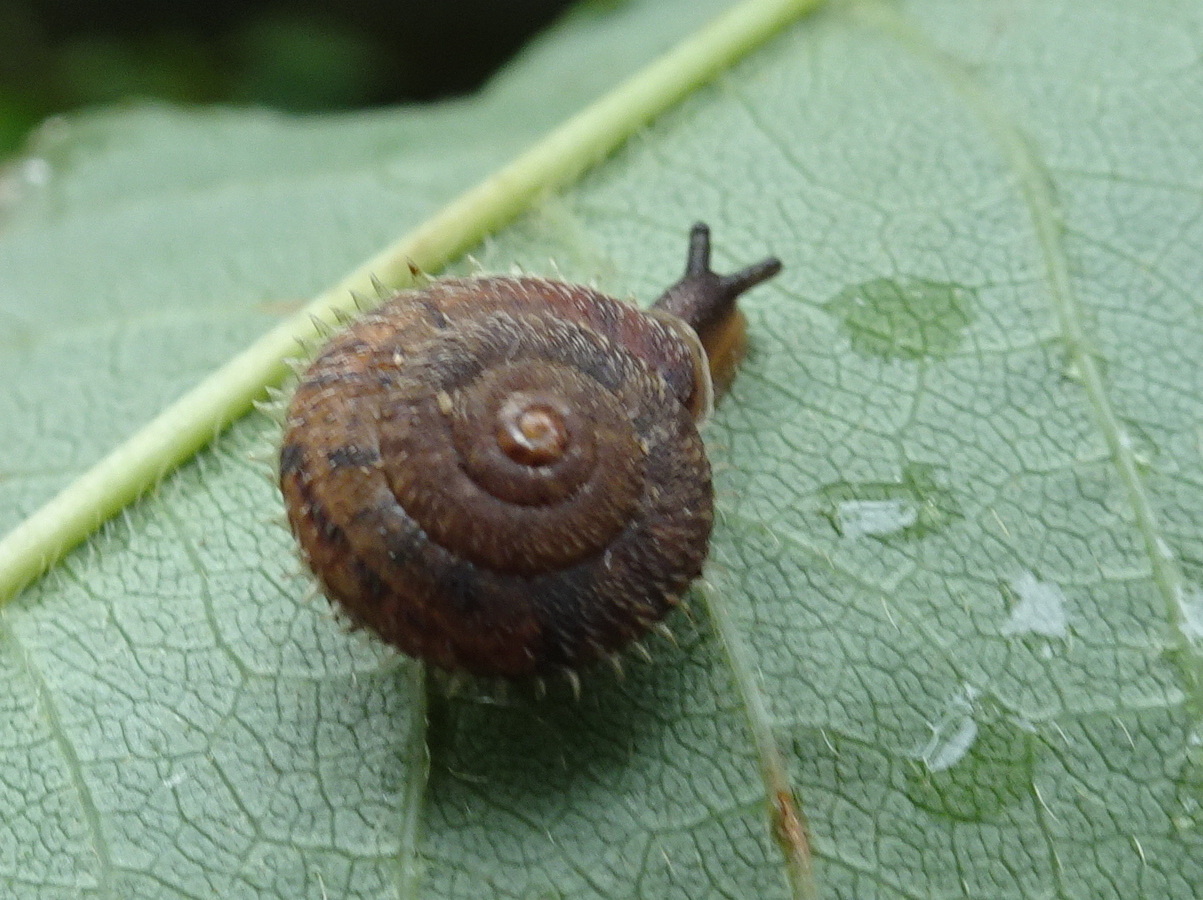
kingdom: Animalia
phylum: Mollusca
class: Gastropoda
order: Stylommatophora
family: Hygromiidae
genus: Ciliella
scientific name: Ciliella ciliata
